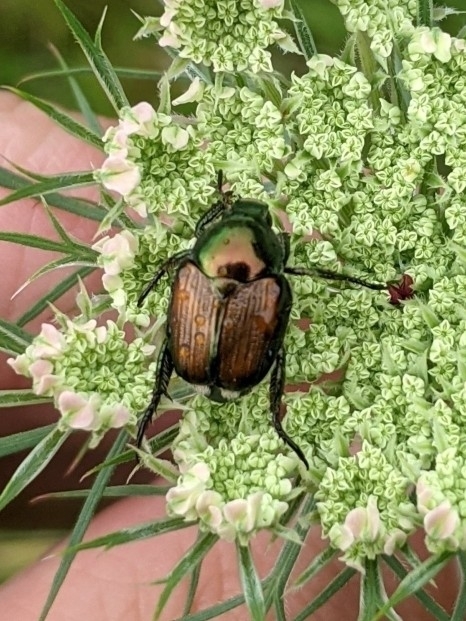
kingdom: Animalia
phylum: Arthropoda
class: Insecta
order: Coleoptera
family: Scarabaeidae
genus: Popillia
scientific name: Popillia japonica
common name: Japanese beetle
